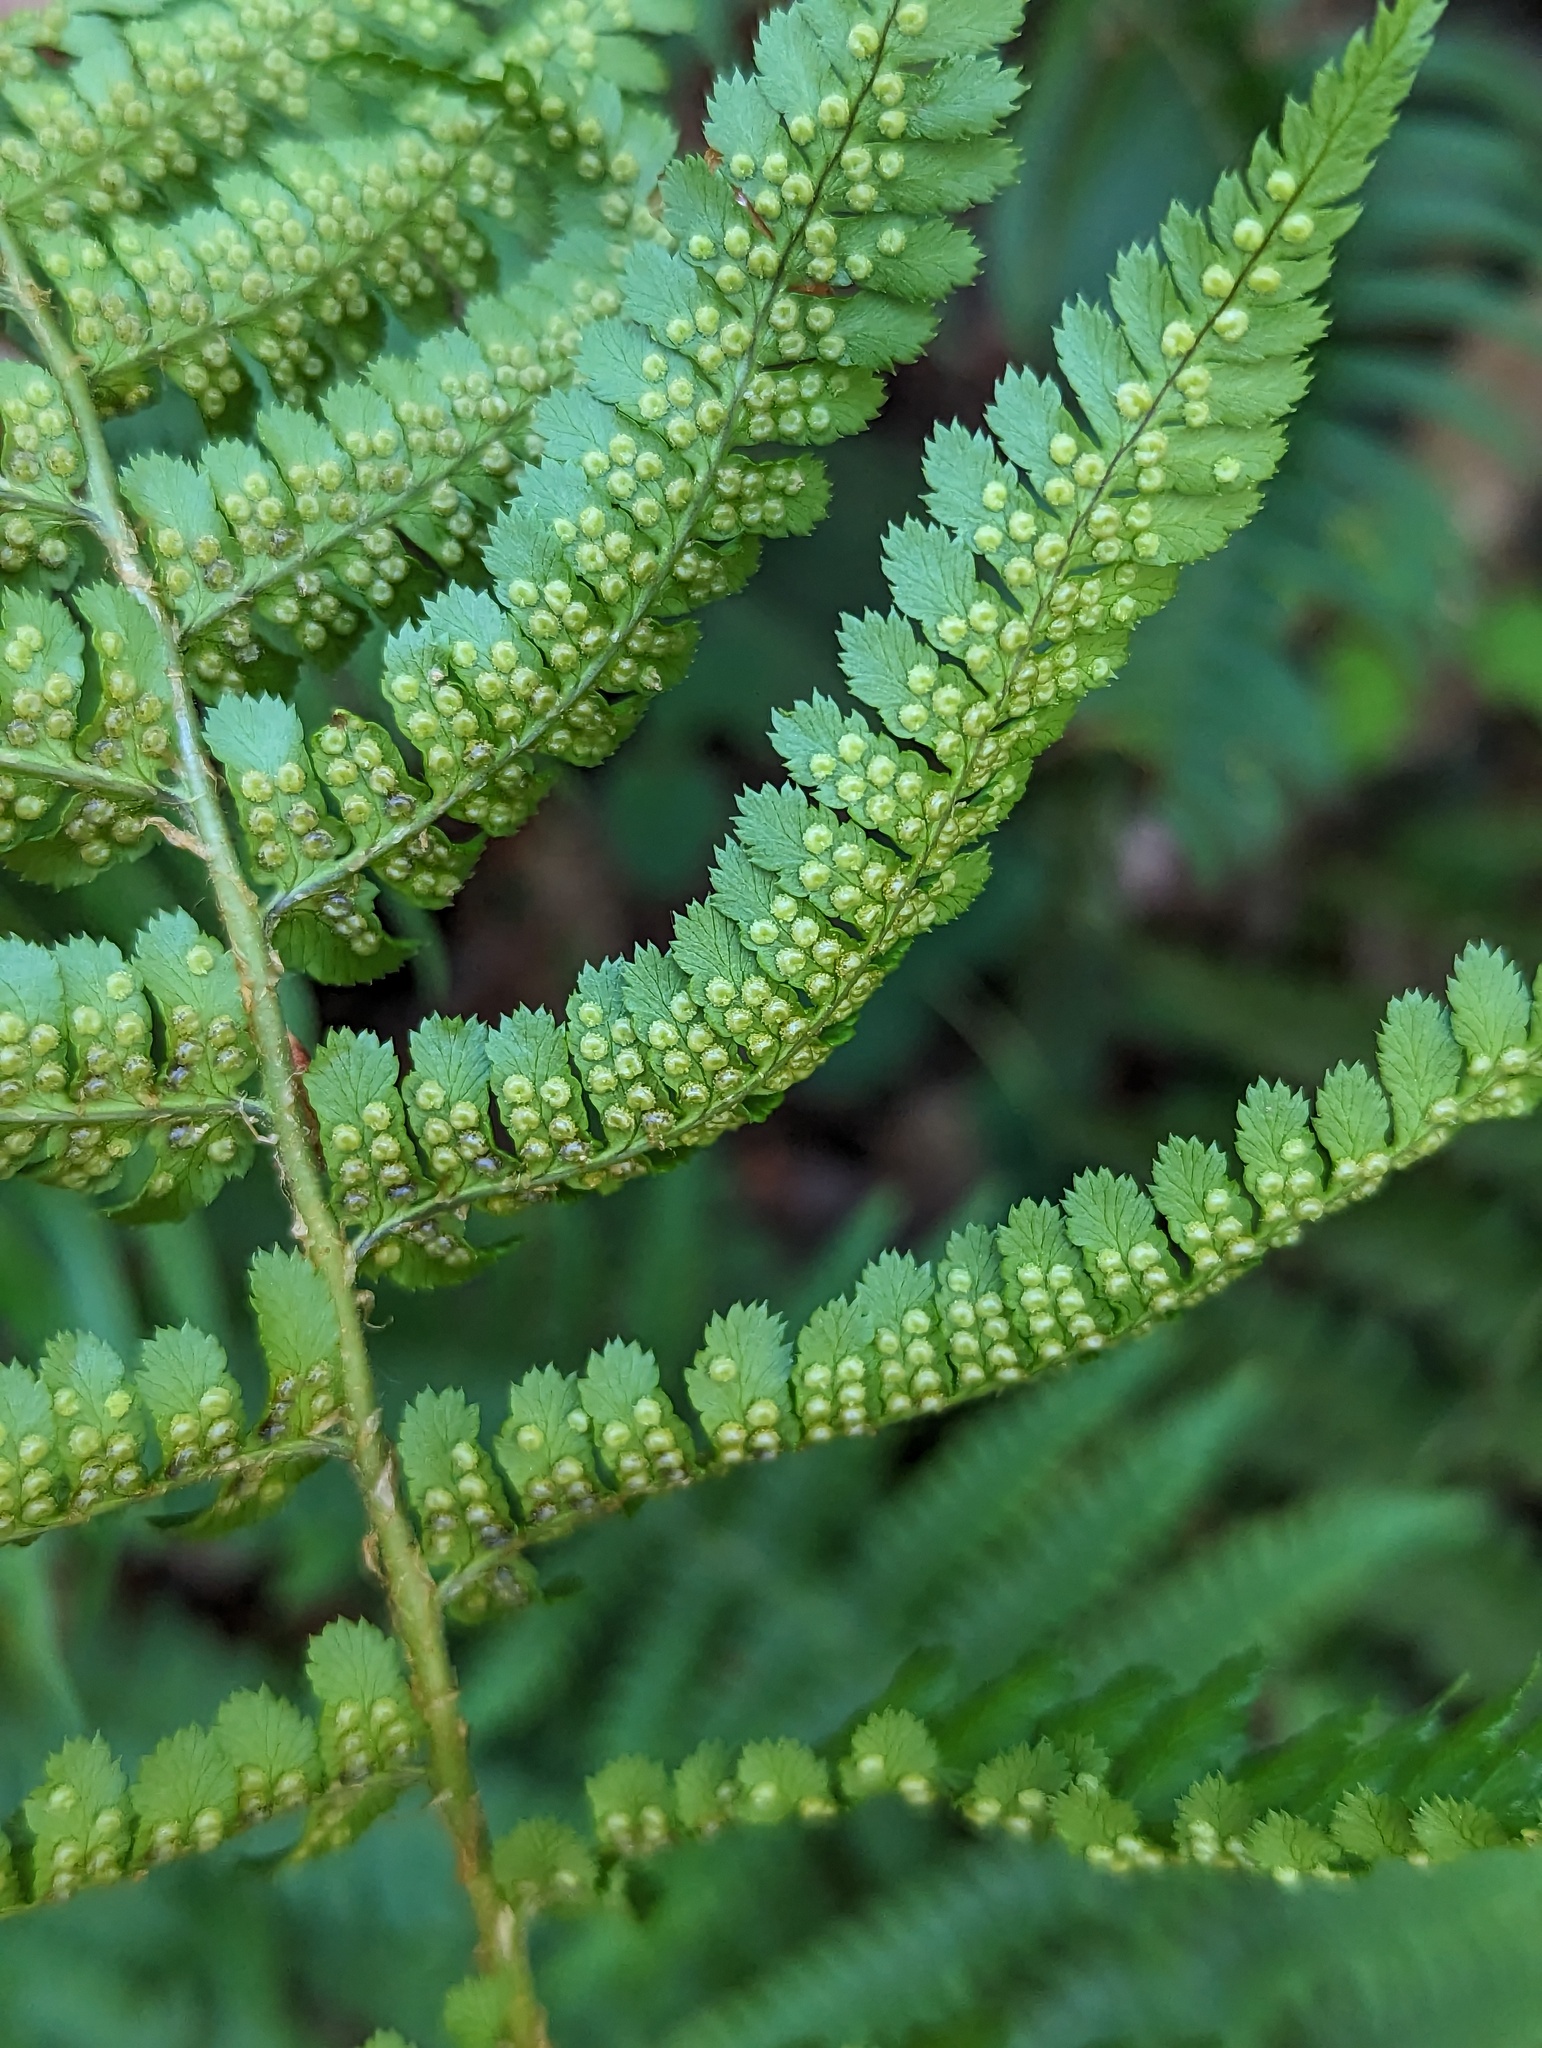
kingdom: Plantae
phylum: Tracheophyta
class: Polypodiopsida
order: Polypodiales
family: Dryopteridaceae
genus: Dryopteris
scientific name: Dryopteris arguta
